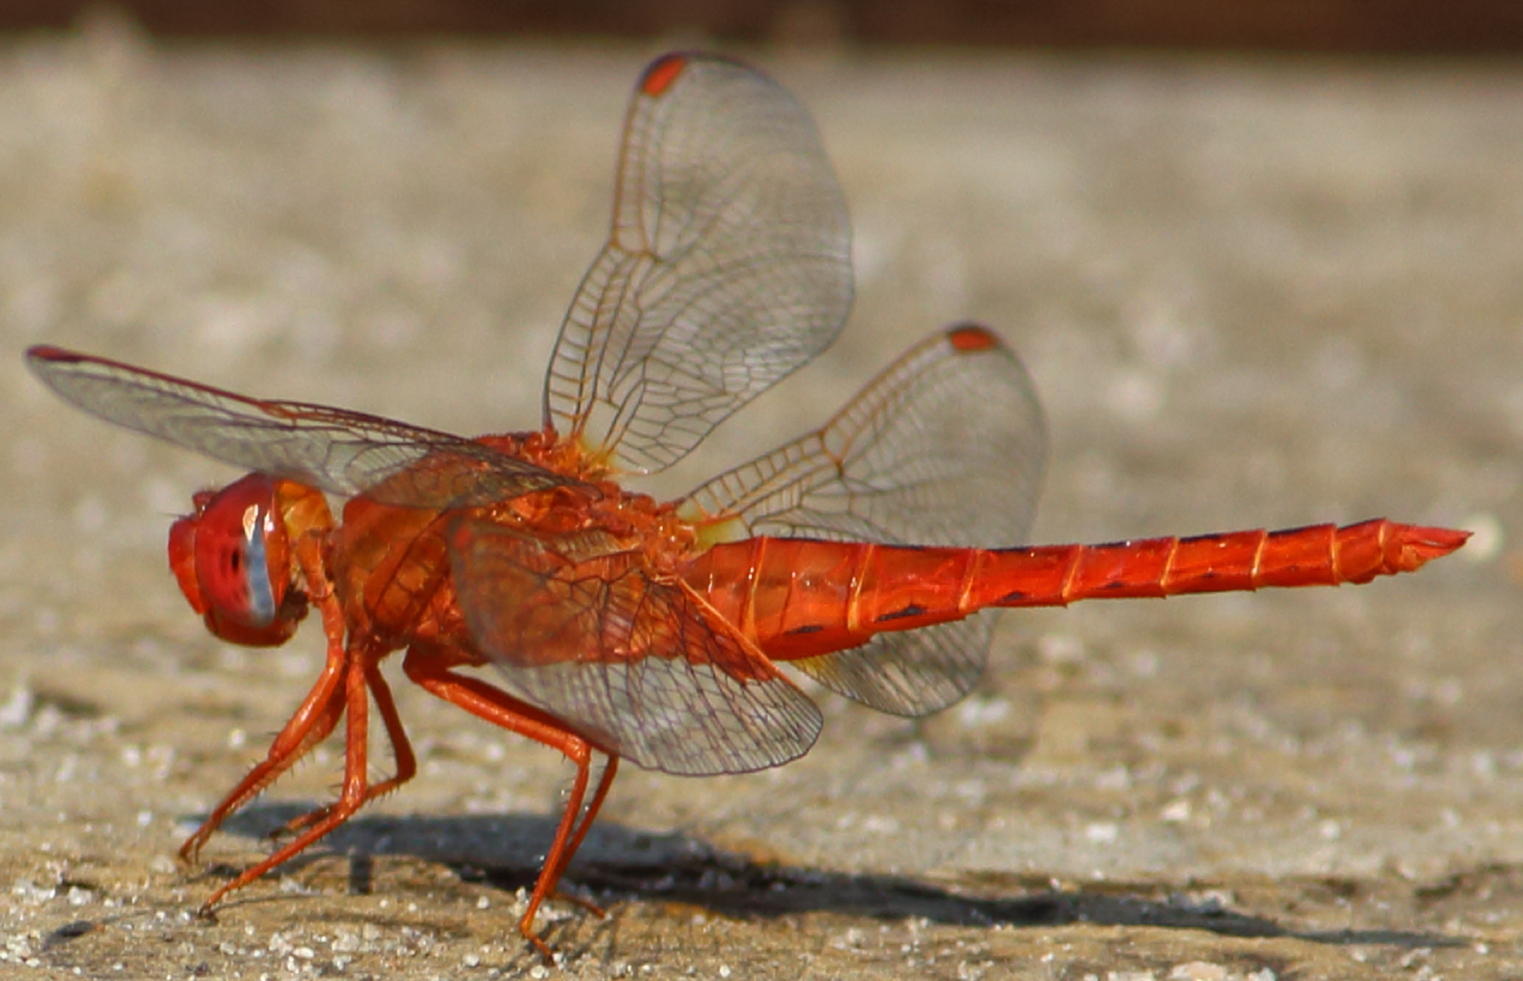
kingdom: Animalia
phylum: Arthropoda
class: Insecta
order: Odonata
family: Libellulidae
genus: Crocothemis
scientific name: Crocothemis sanguinolenta
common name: Little scarlet
